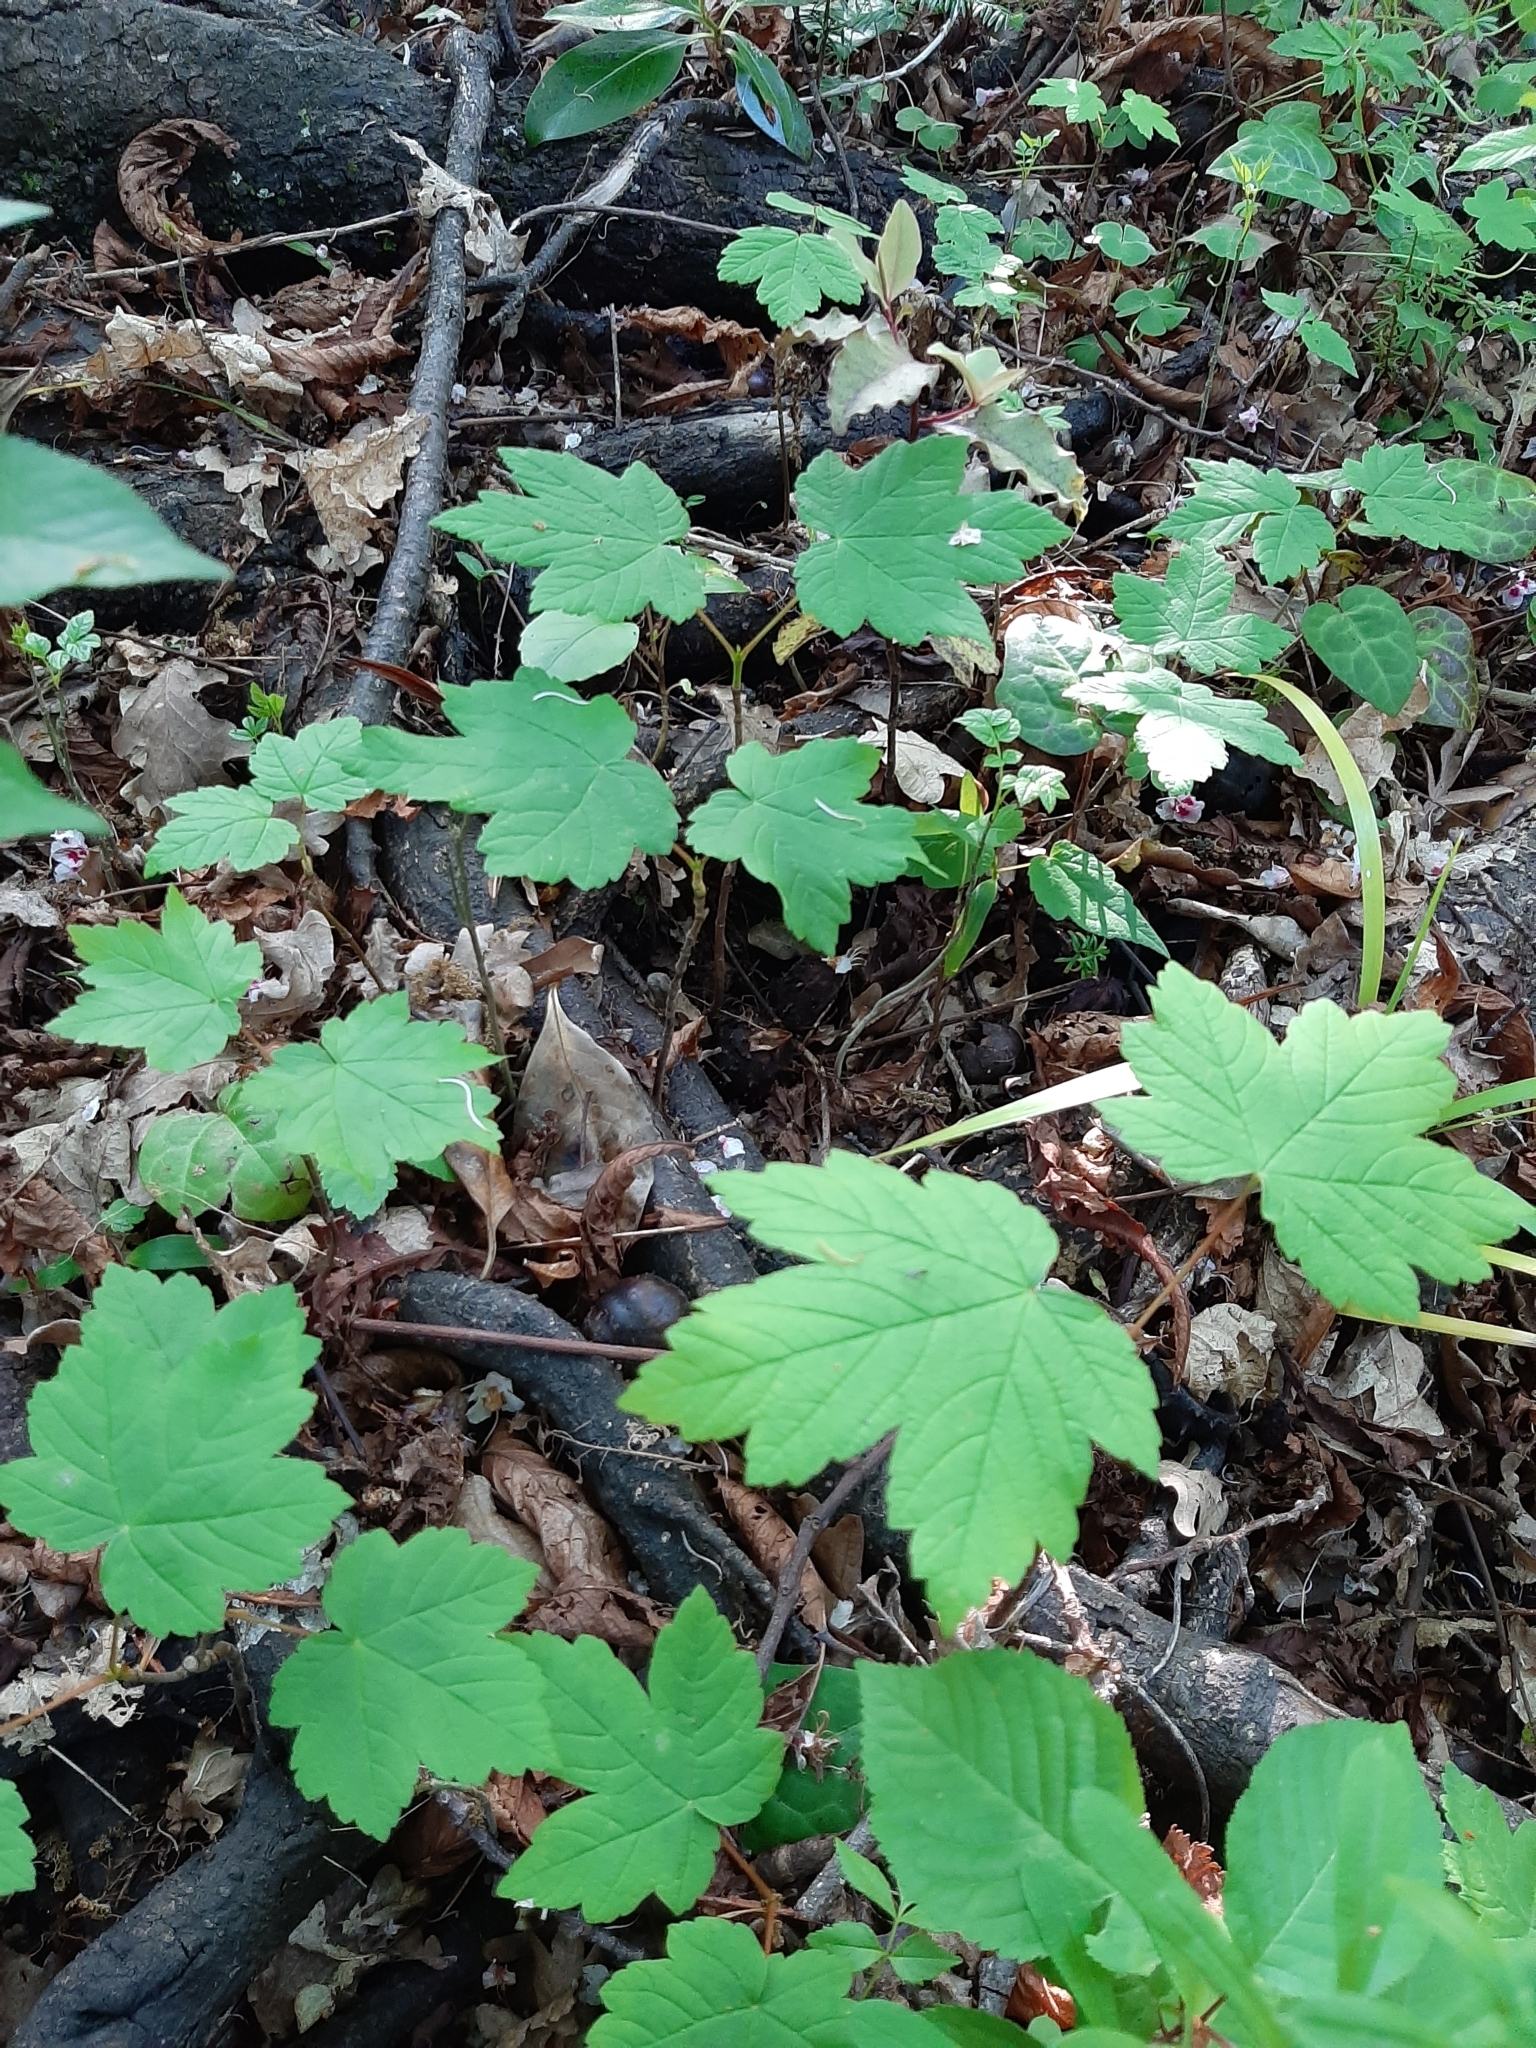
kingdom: Plantae
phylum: Tracheophyta
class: Magnoliopsida
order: Sapindales
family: Sapindaceae
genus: Acer
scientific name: Acer pseudoplatanus
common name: Sycamore
